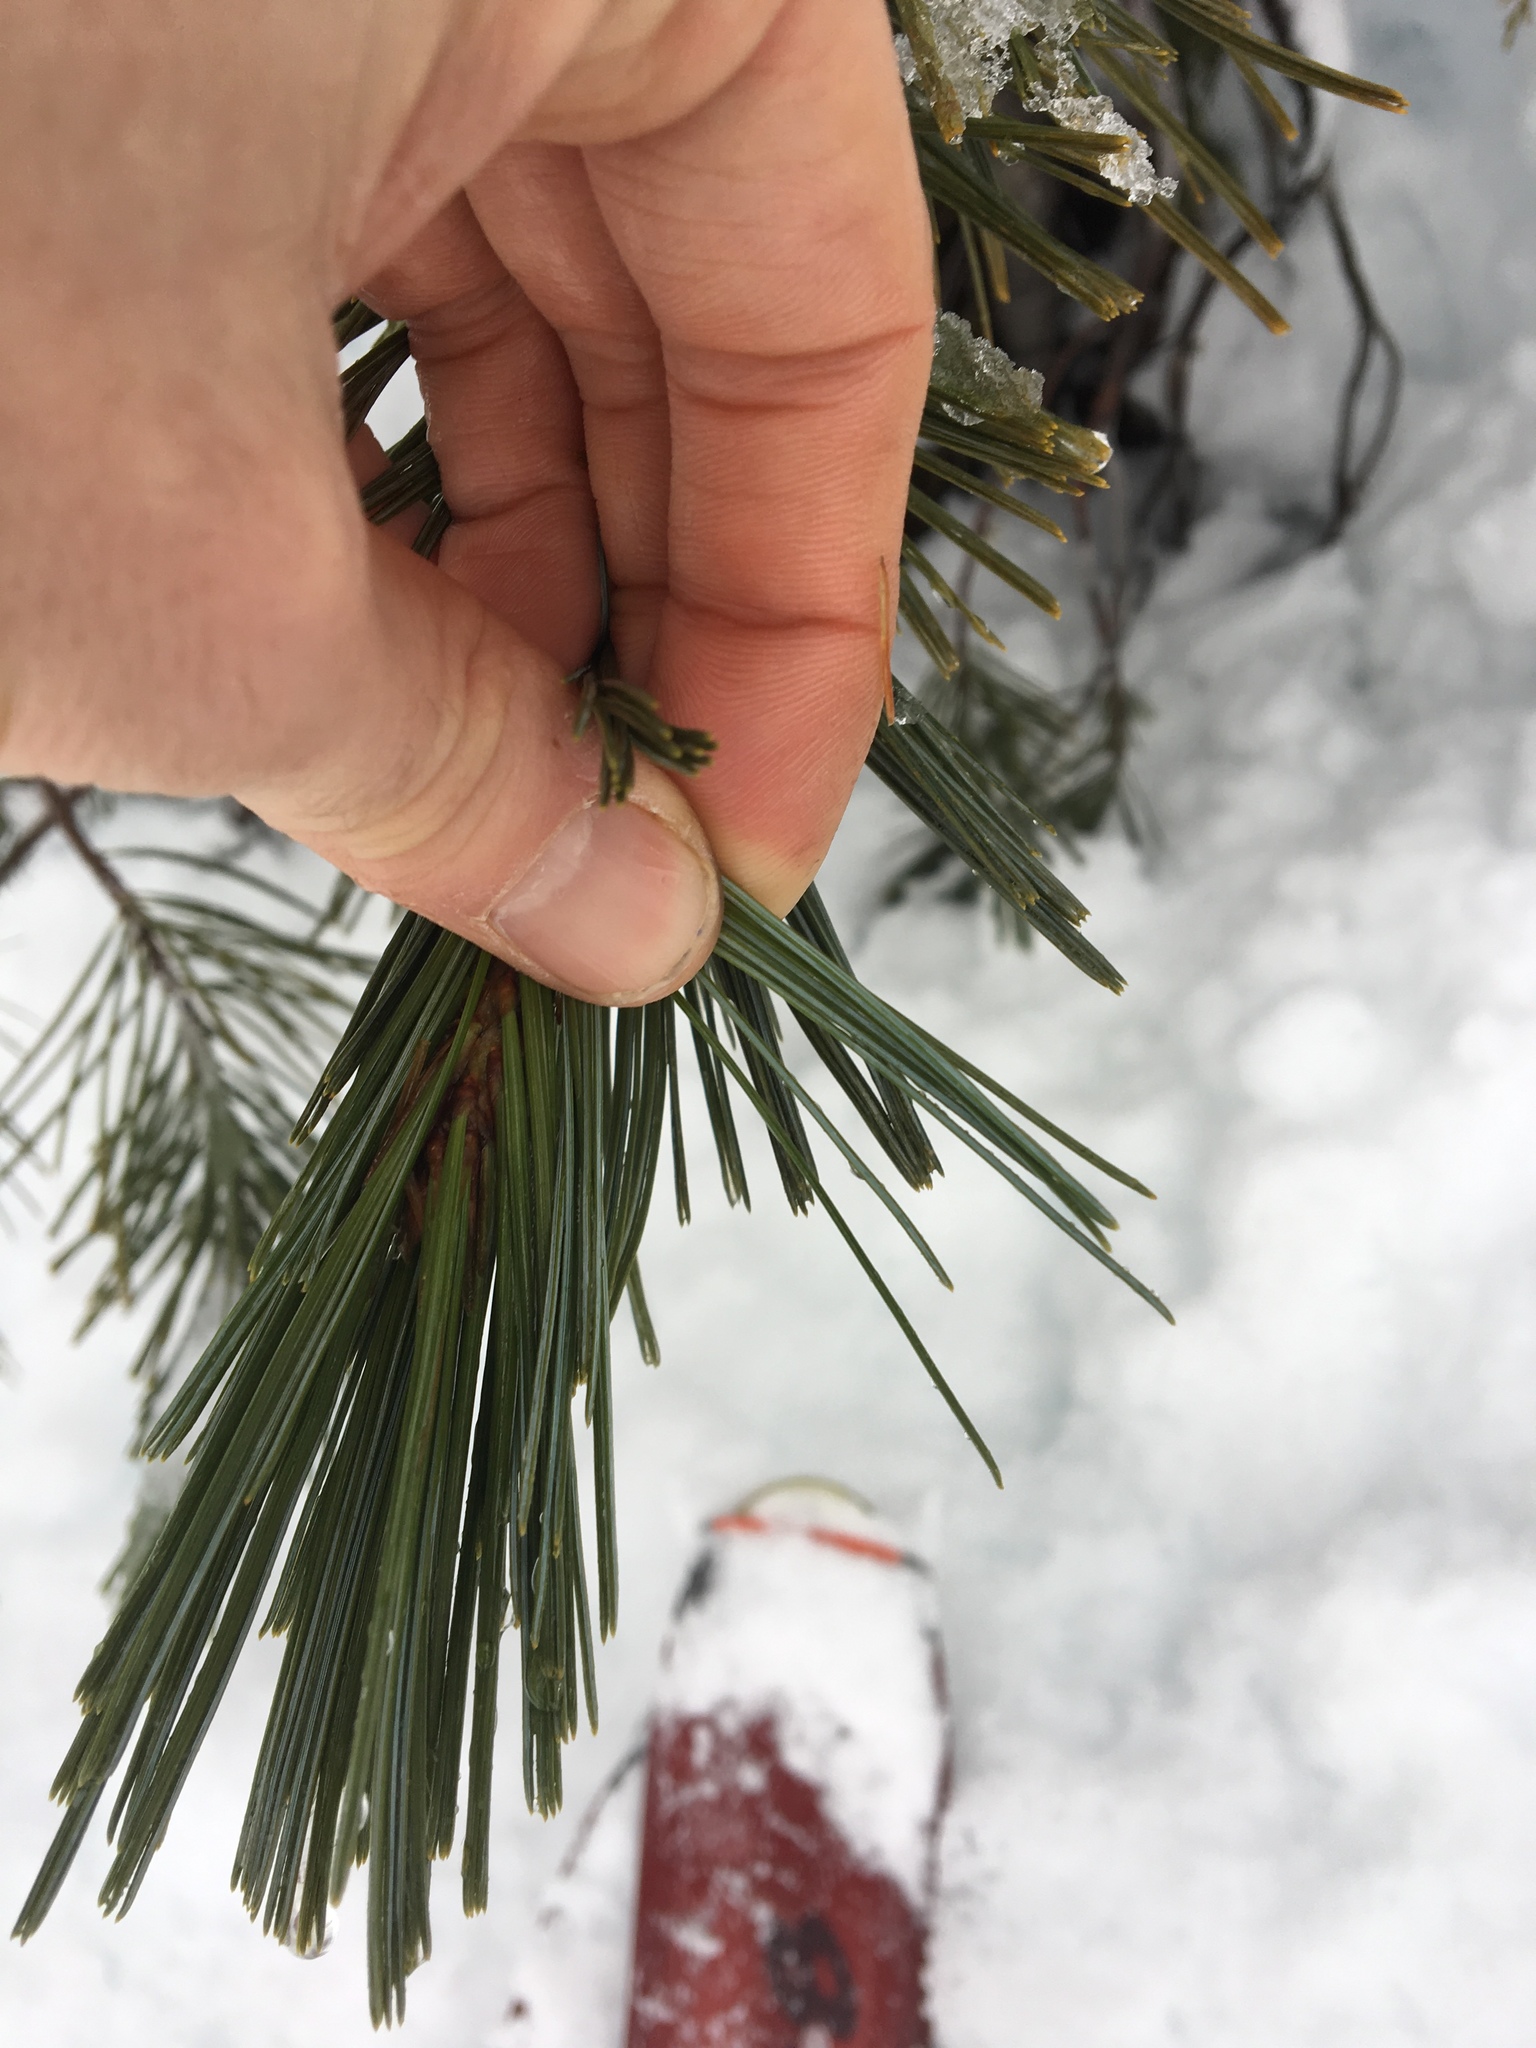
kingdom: Plantae
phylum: Tracheophyta
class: Pinopsida
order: Pinales
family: Pinaceae
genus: Pinus
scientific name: Pinus monticola
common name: Western white pine
